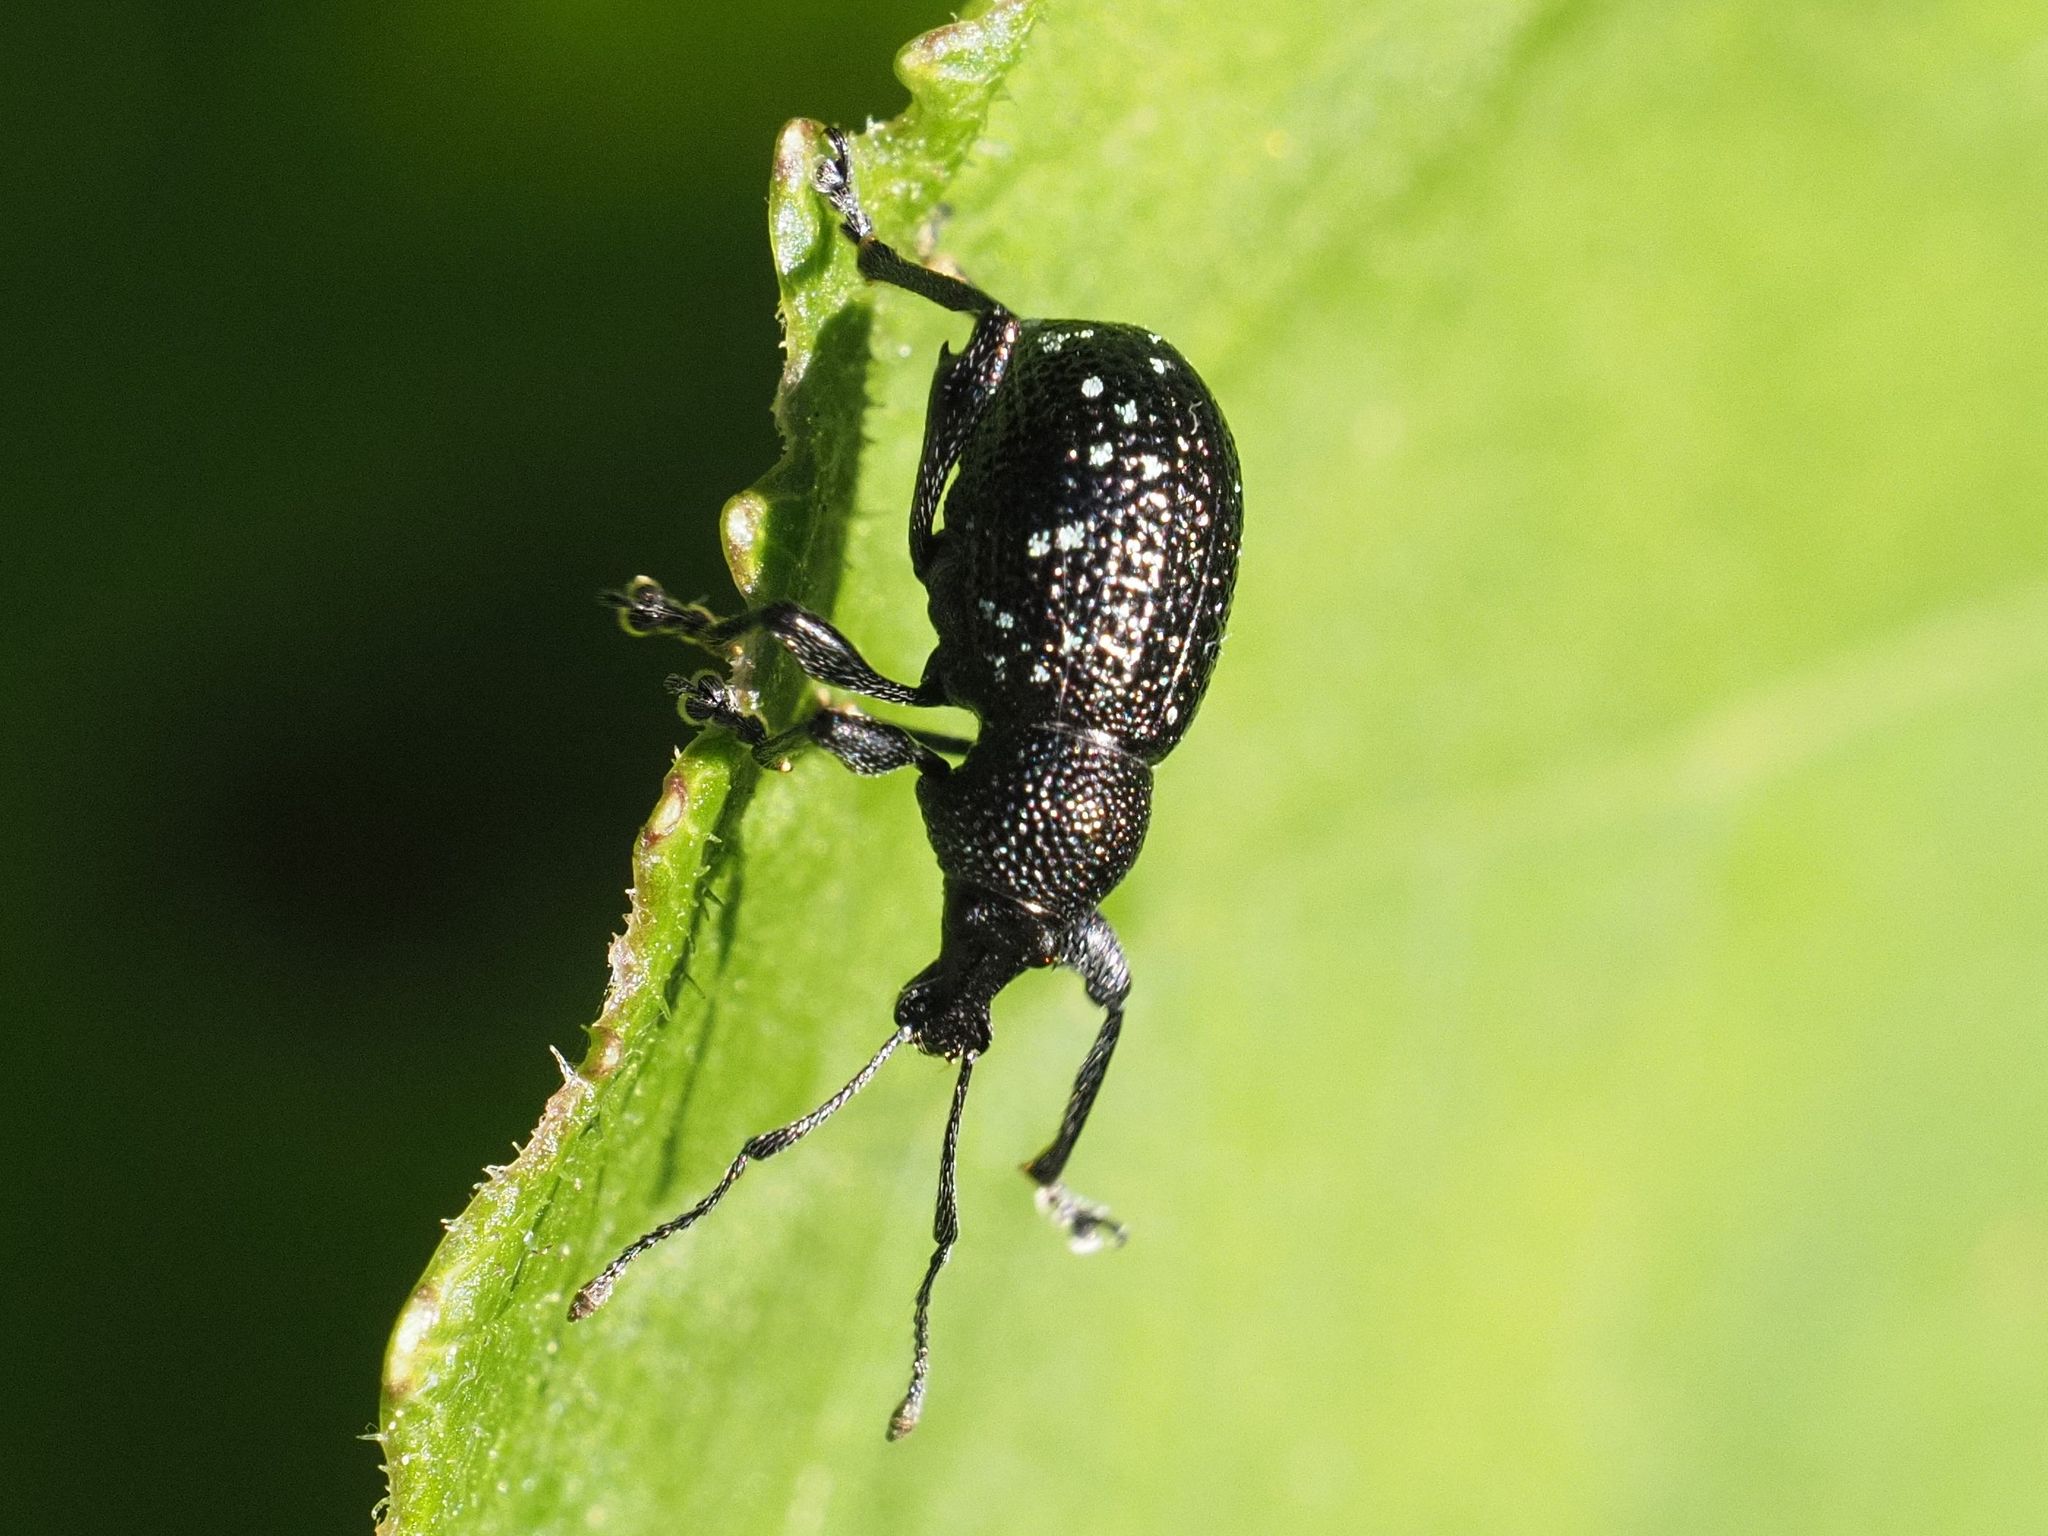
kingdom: Animalia
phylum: Arthropoda
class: Insecta
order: Coleoptera
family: Curculionidae
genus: Otiorhynchus
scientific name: Otiorhynchus gemmatus
